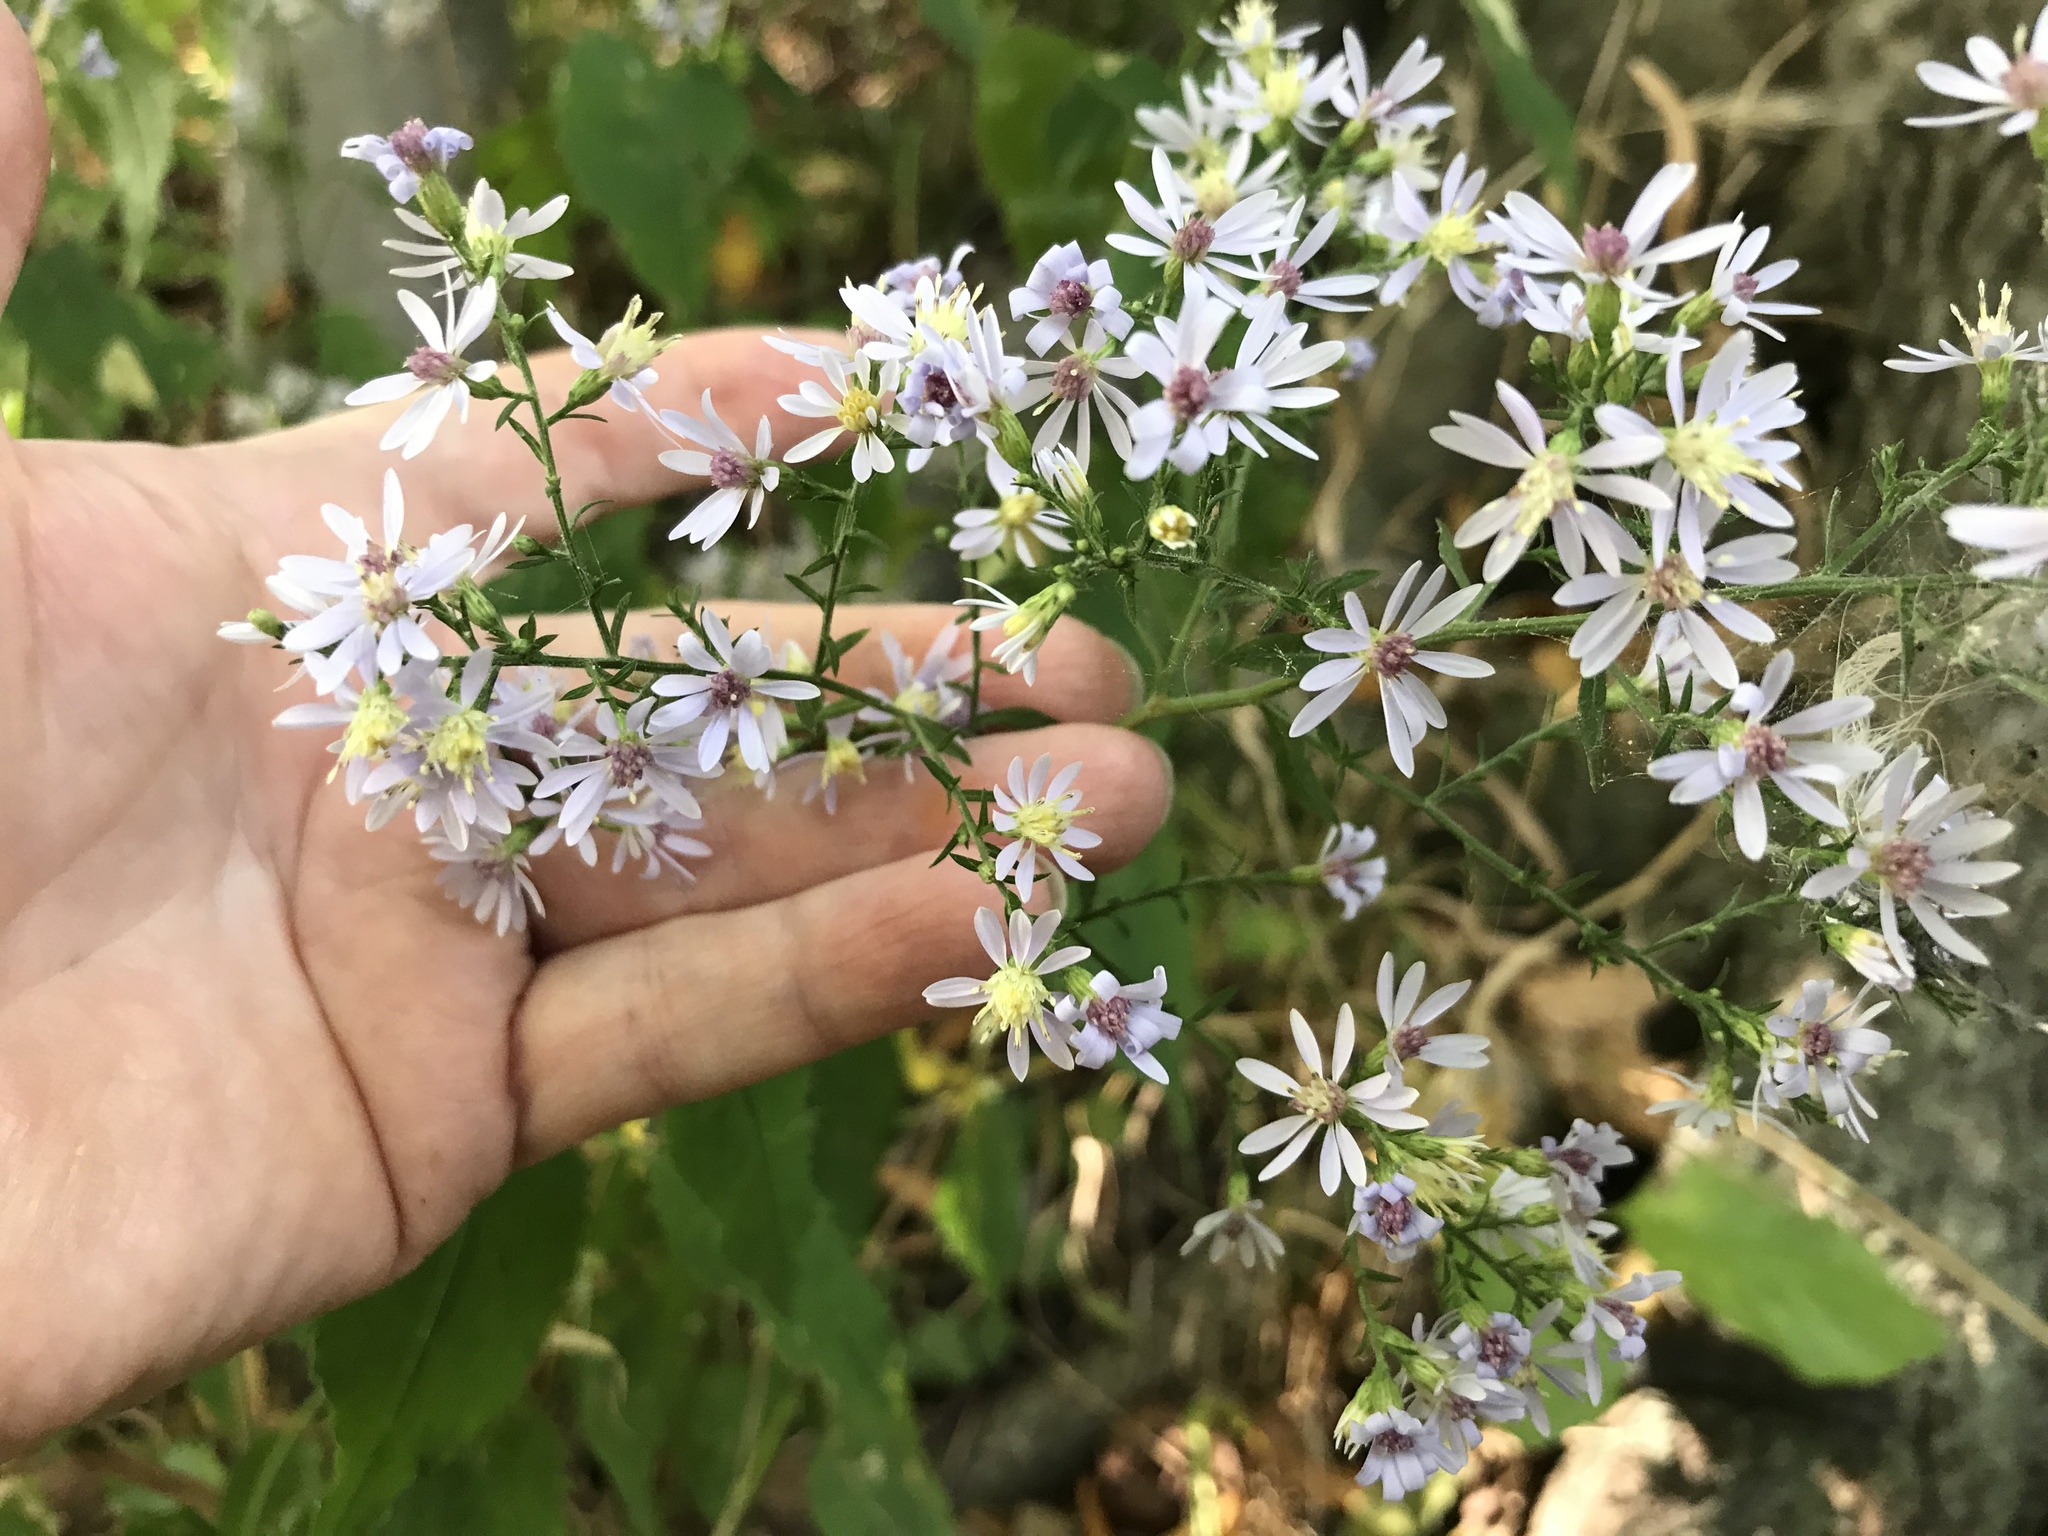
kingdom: Plantae
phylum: Tracheophyta
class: Magnoliopsida
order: Asterales
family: Asteraceae
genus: Symphyotrichum
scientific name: Symphyotrichum cordifolium
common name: Beeweed
